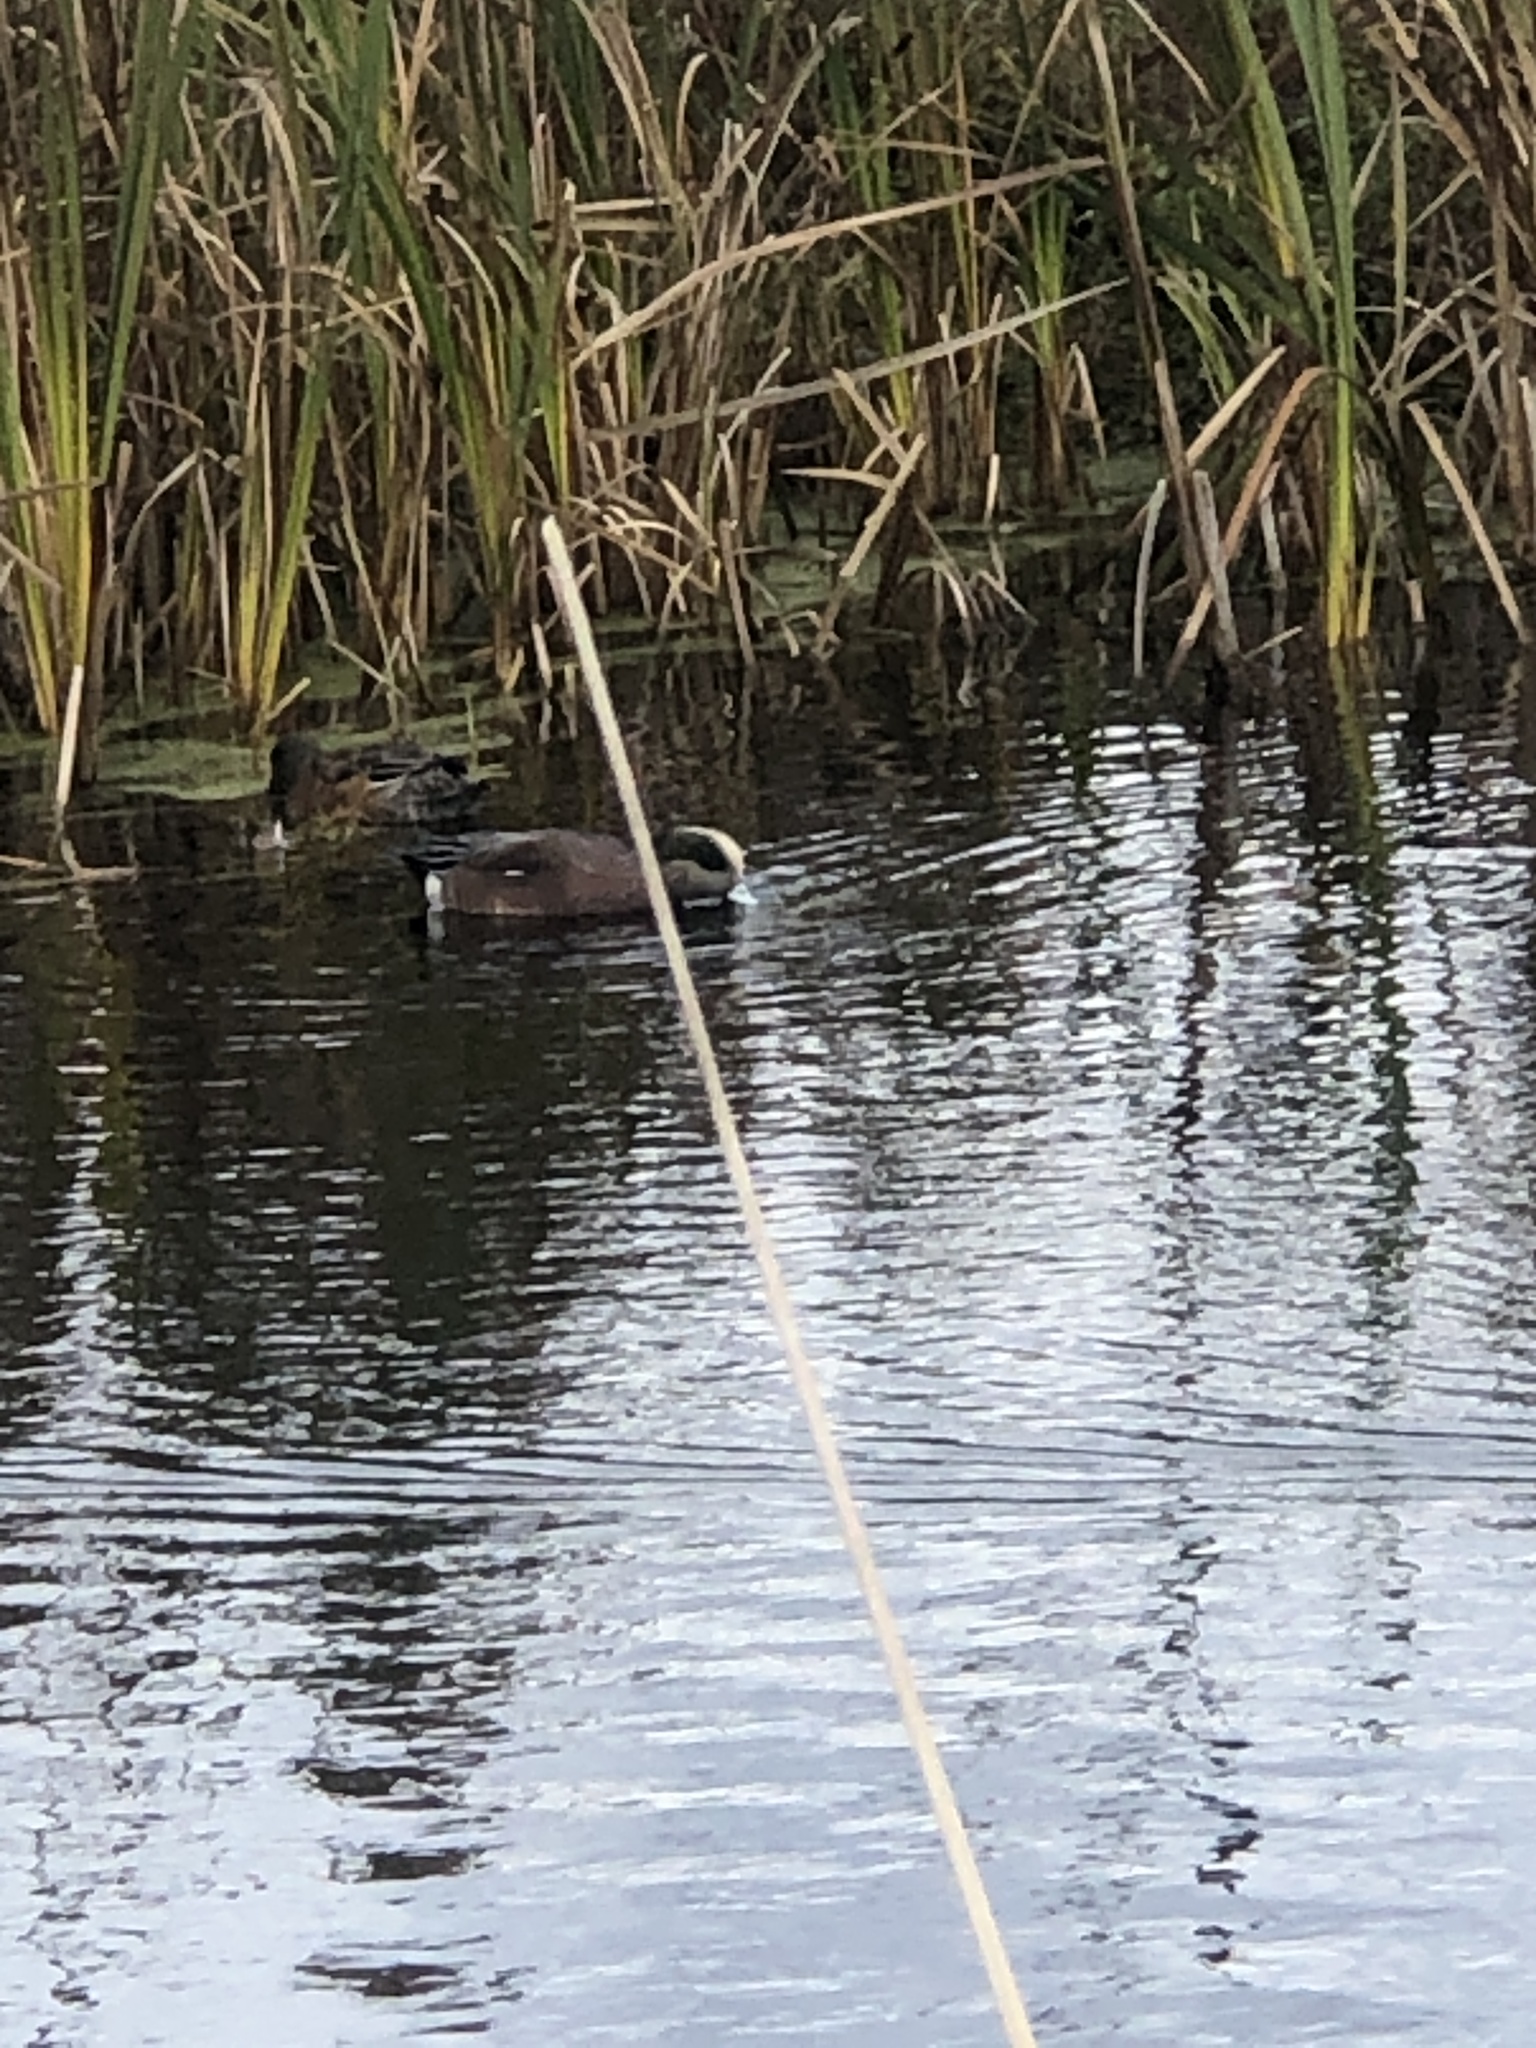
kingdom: Animalia
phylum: Chordata
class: Aves
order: Anseriformes
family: Anatidae
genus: Mareca
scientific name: Mareca americana
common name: American wigeon
